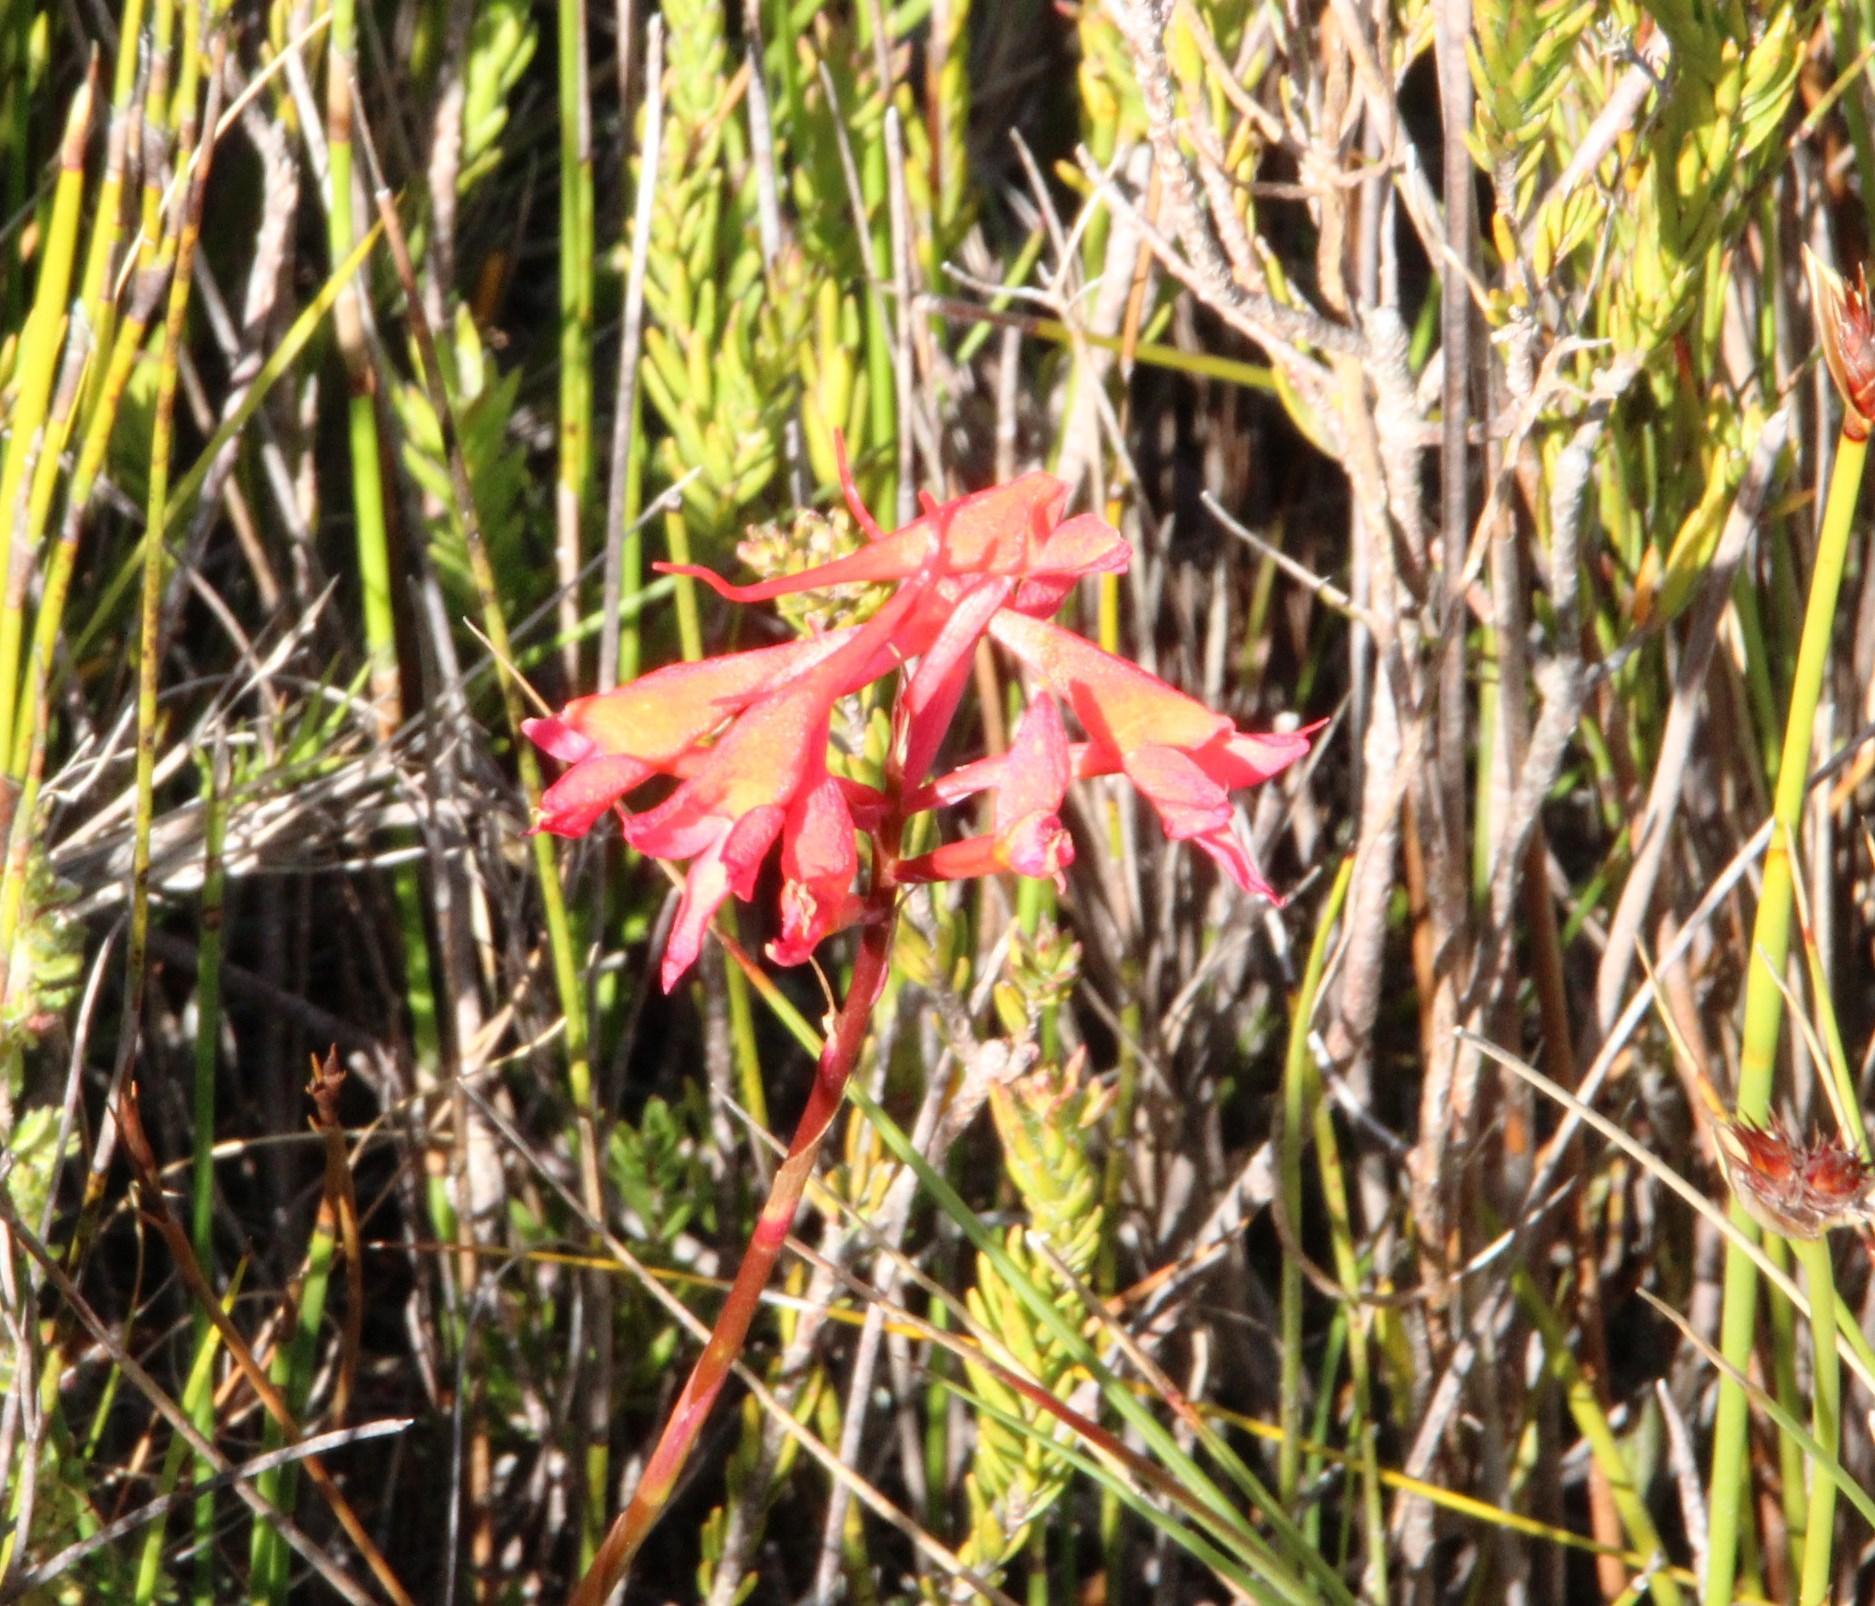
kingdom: Plantae
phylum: Tracheophyta
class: Liliopsida
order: Asparagales
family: Orchidaceae
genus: Disa
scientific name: Disa ferruginea
